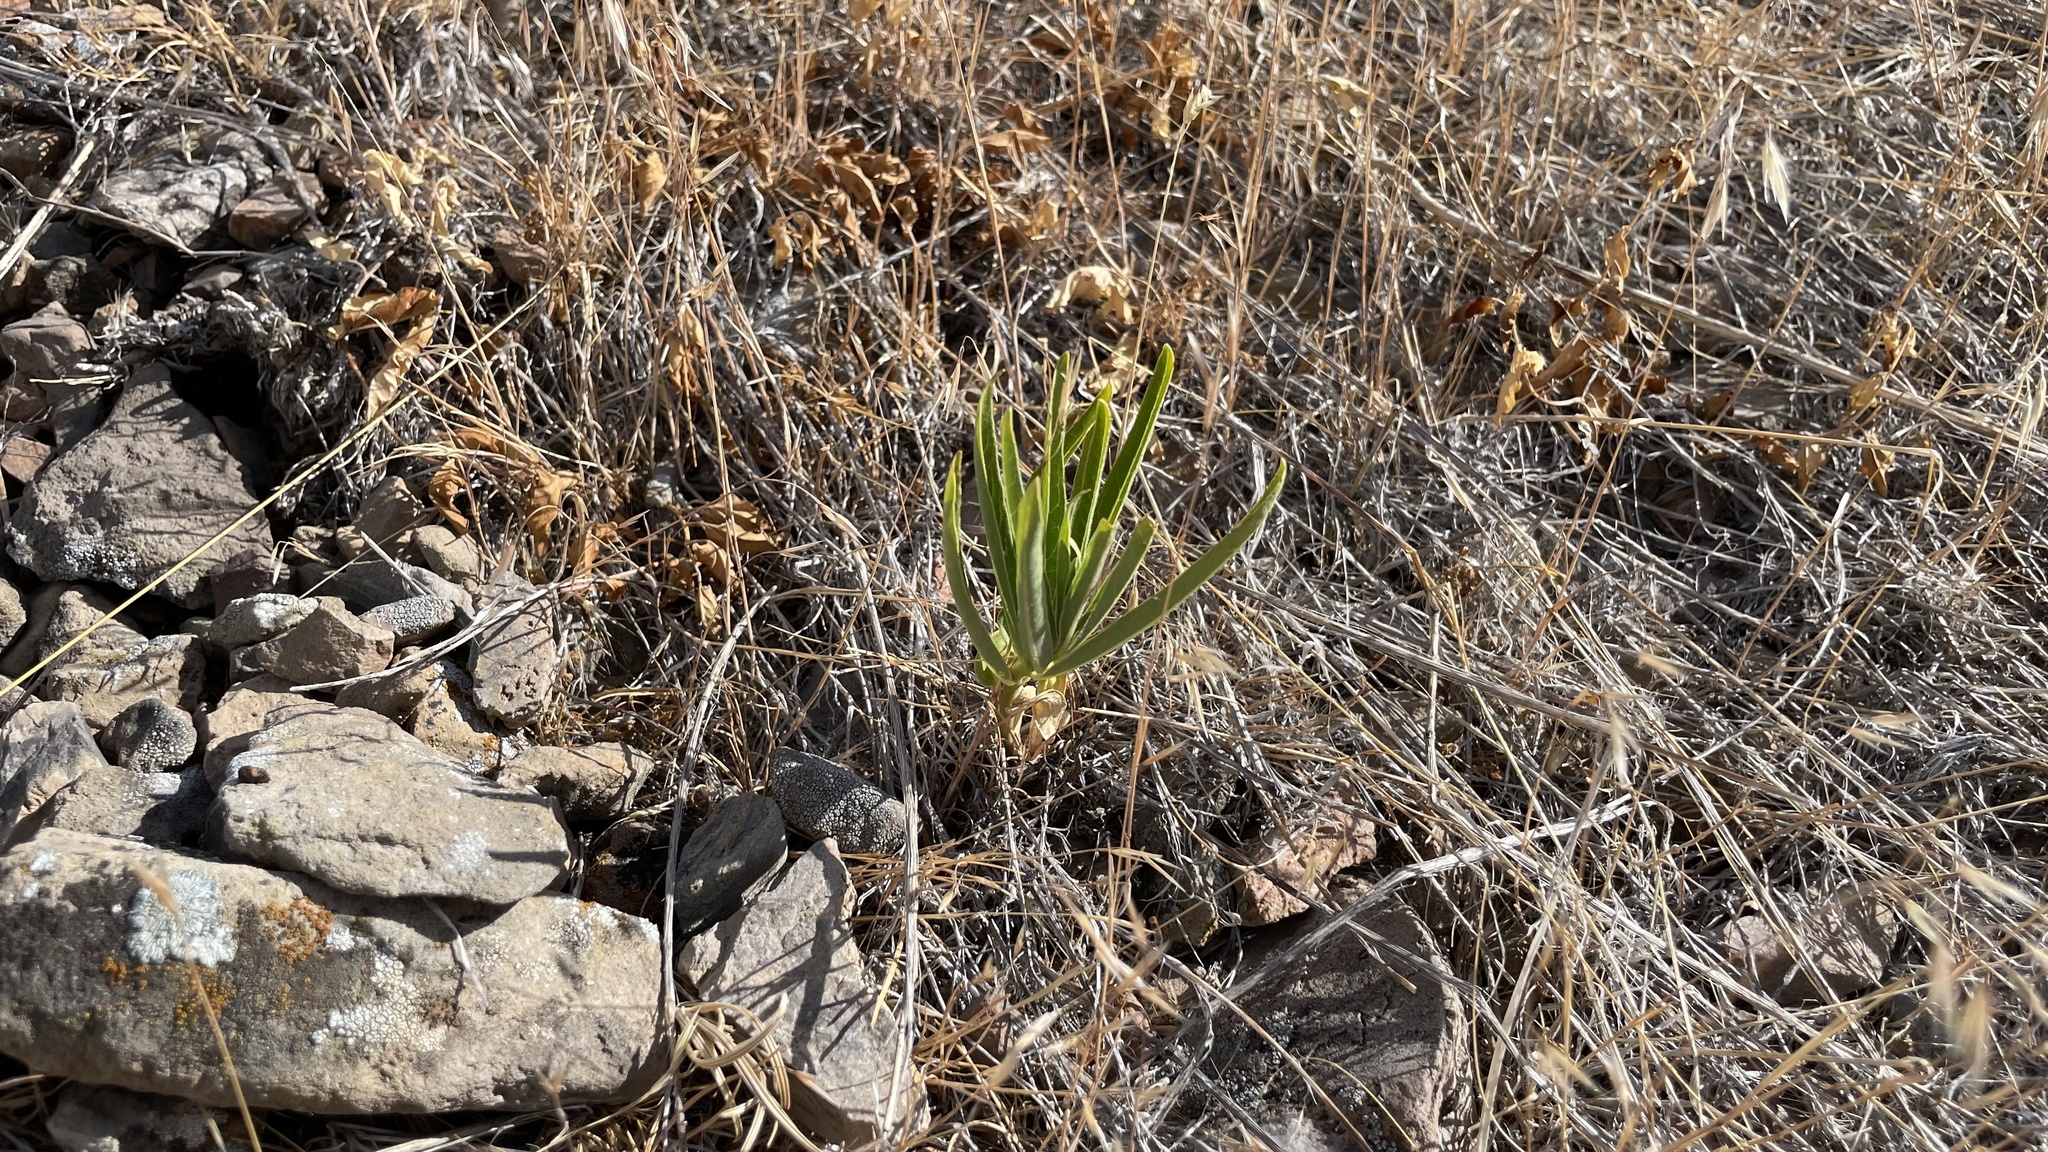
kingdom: Plantae
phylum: Tracheophyta
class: Magnoliopsida
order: Gentianales
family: Apocynaceae
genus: Asclepias
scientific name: Asclepias asperula
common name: Antelope horns
